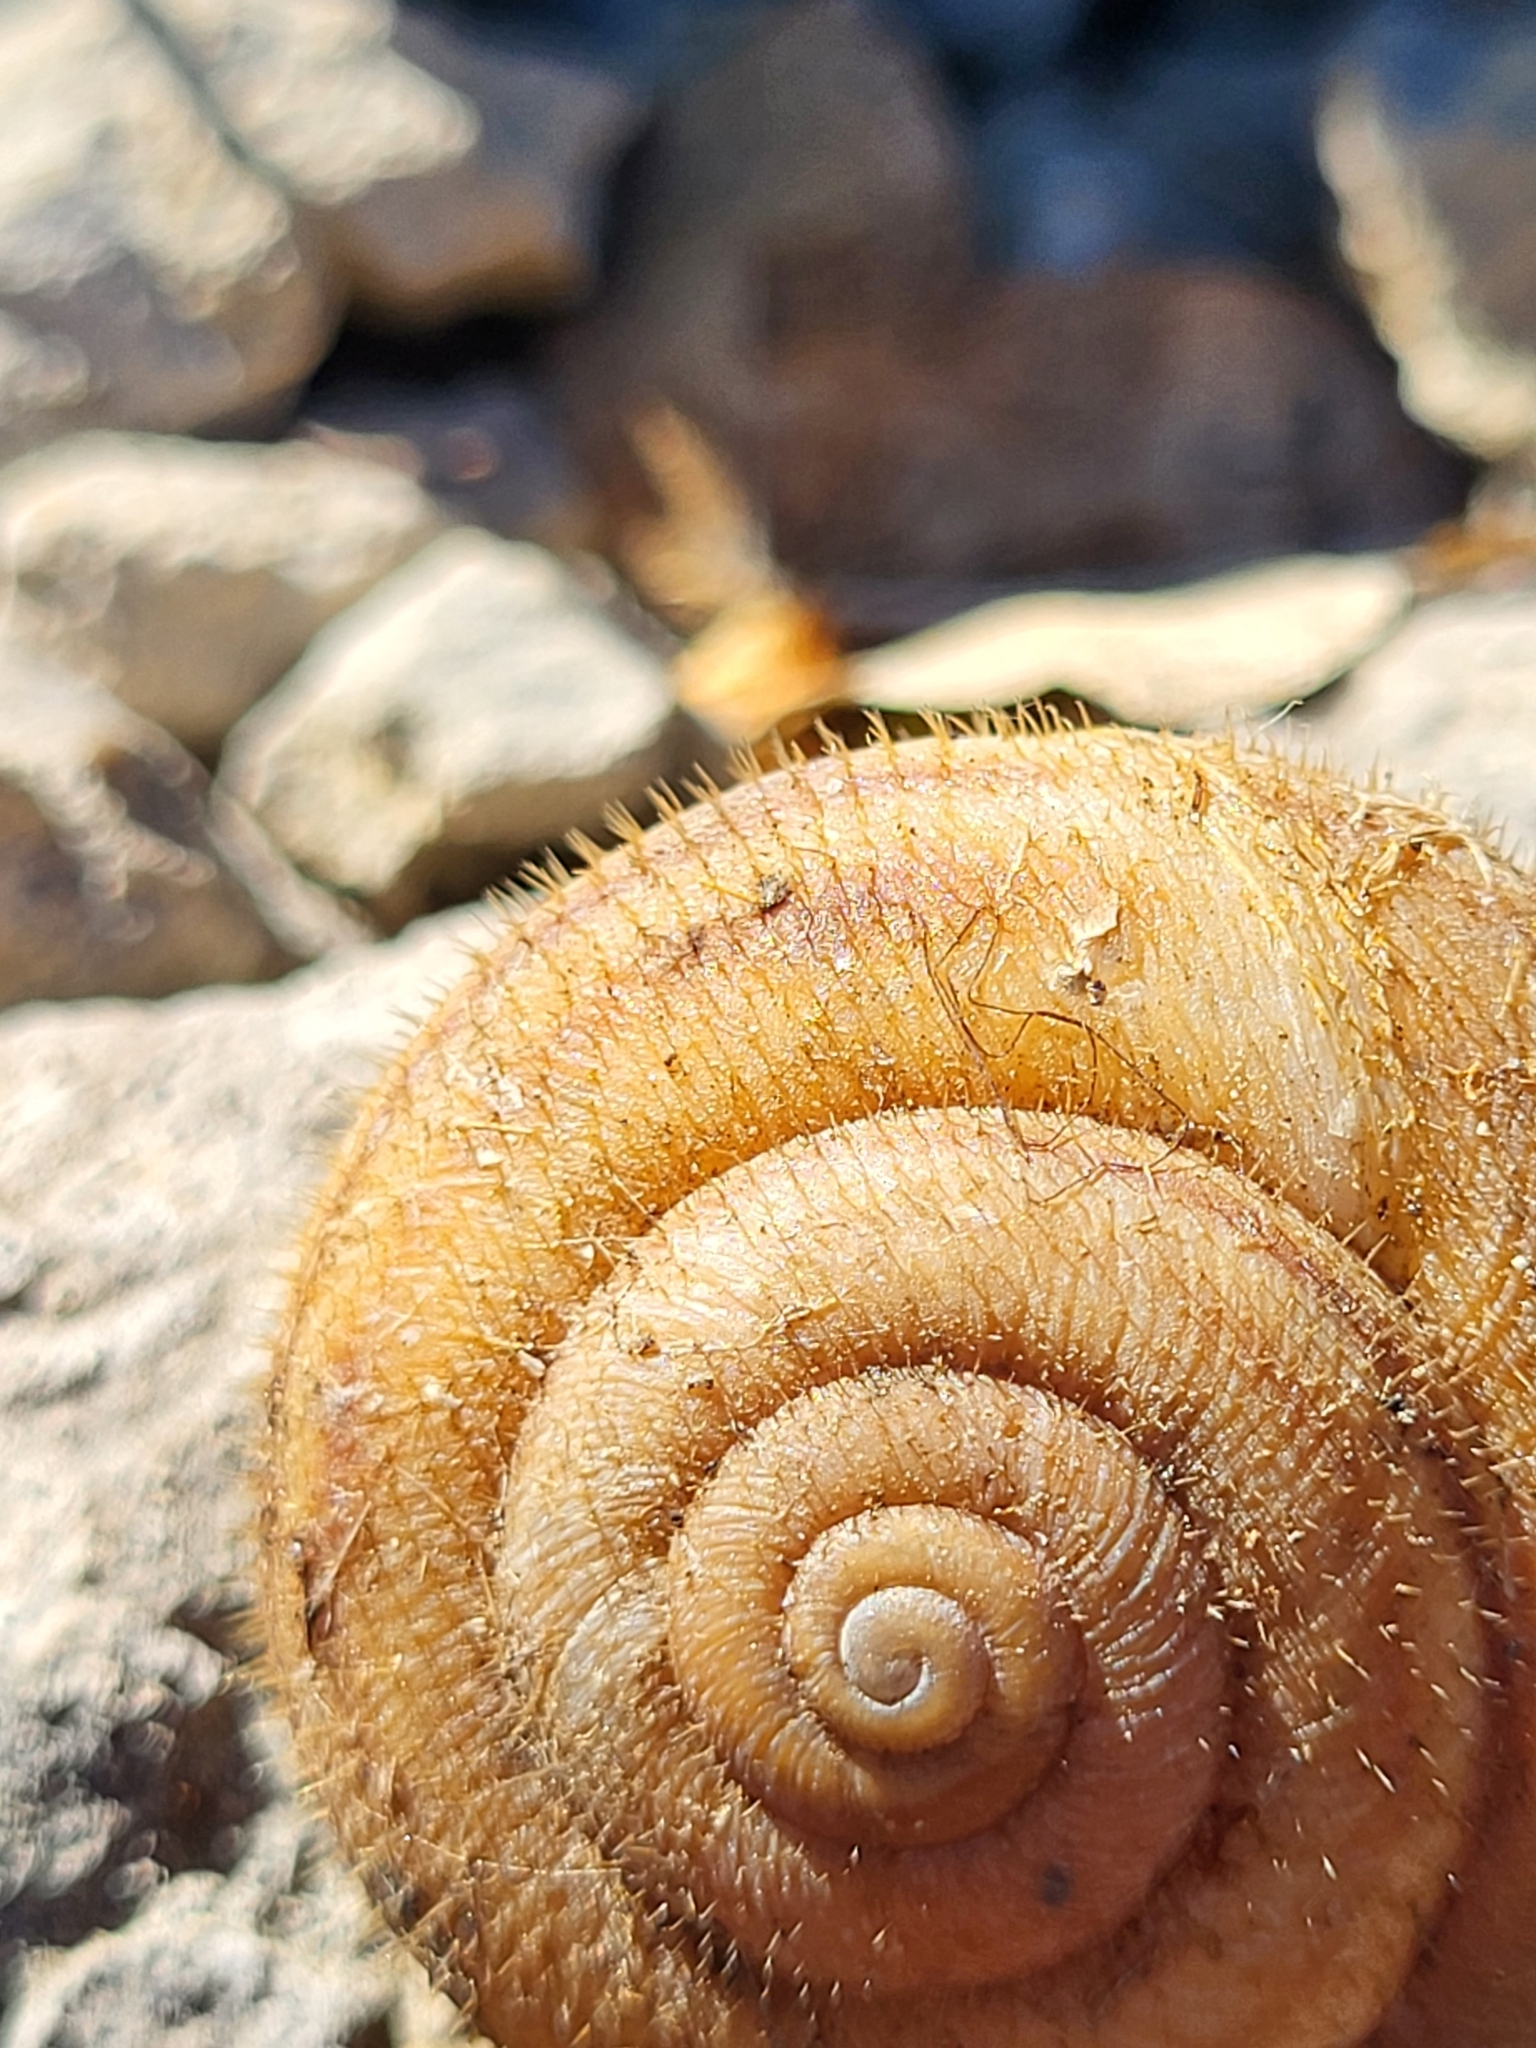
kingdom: Animalia
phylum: Mollusca
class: Gastropoda
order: Stylommatophora
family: Helicidae
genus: Liburnica
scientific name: Liburnica setosa
